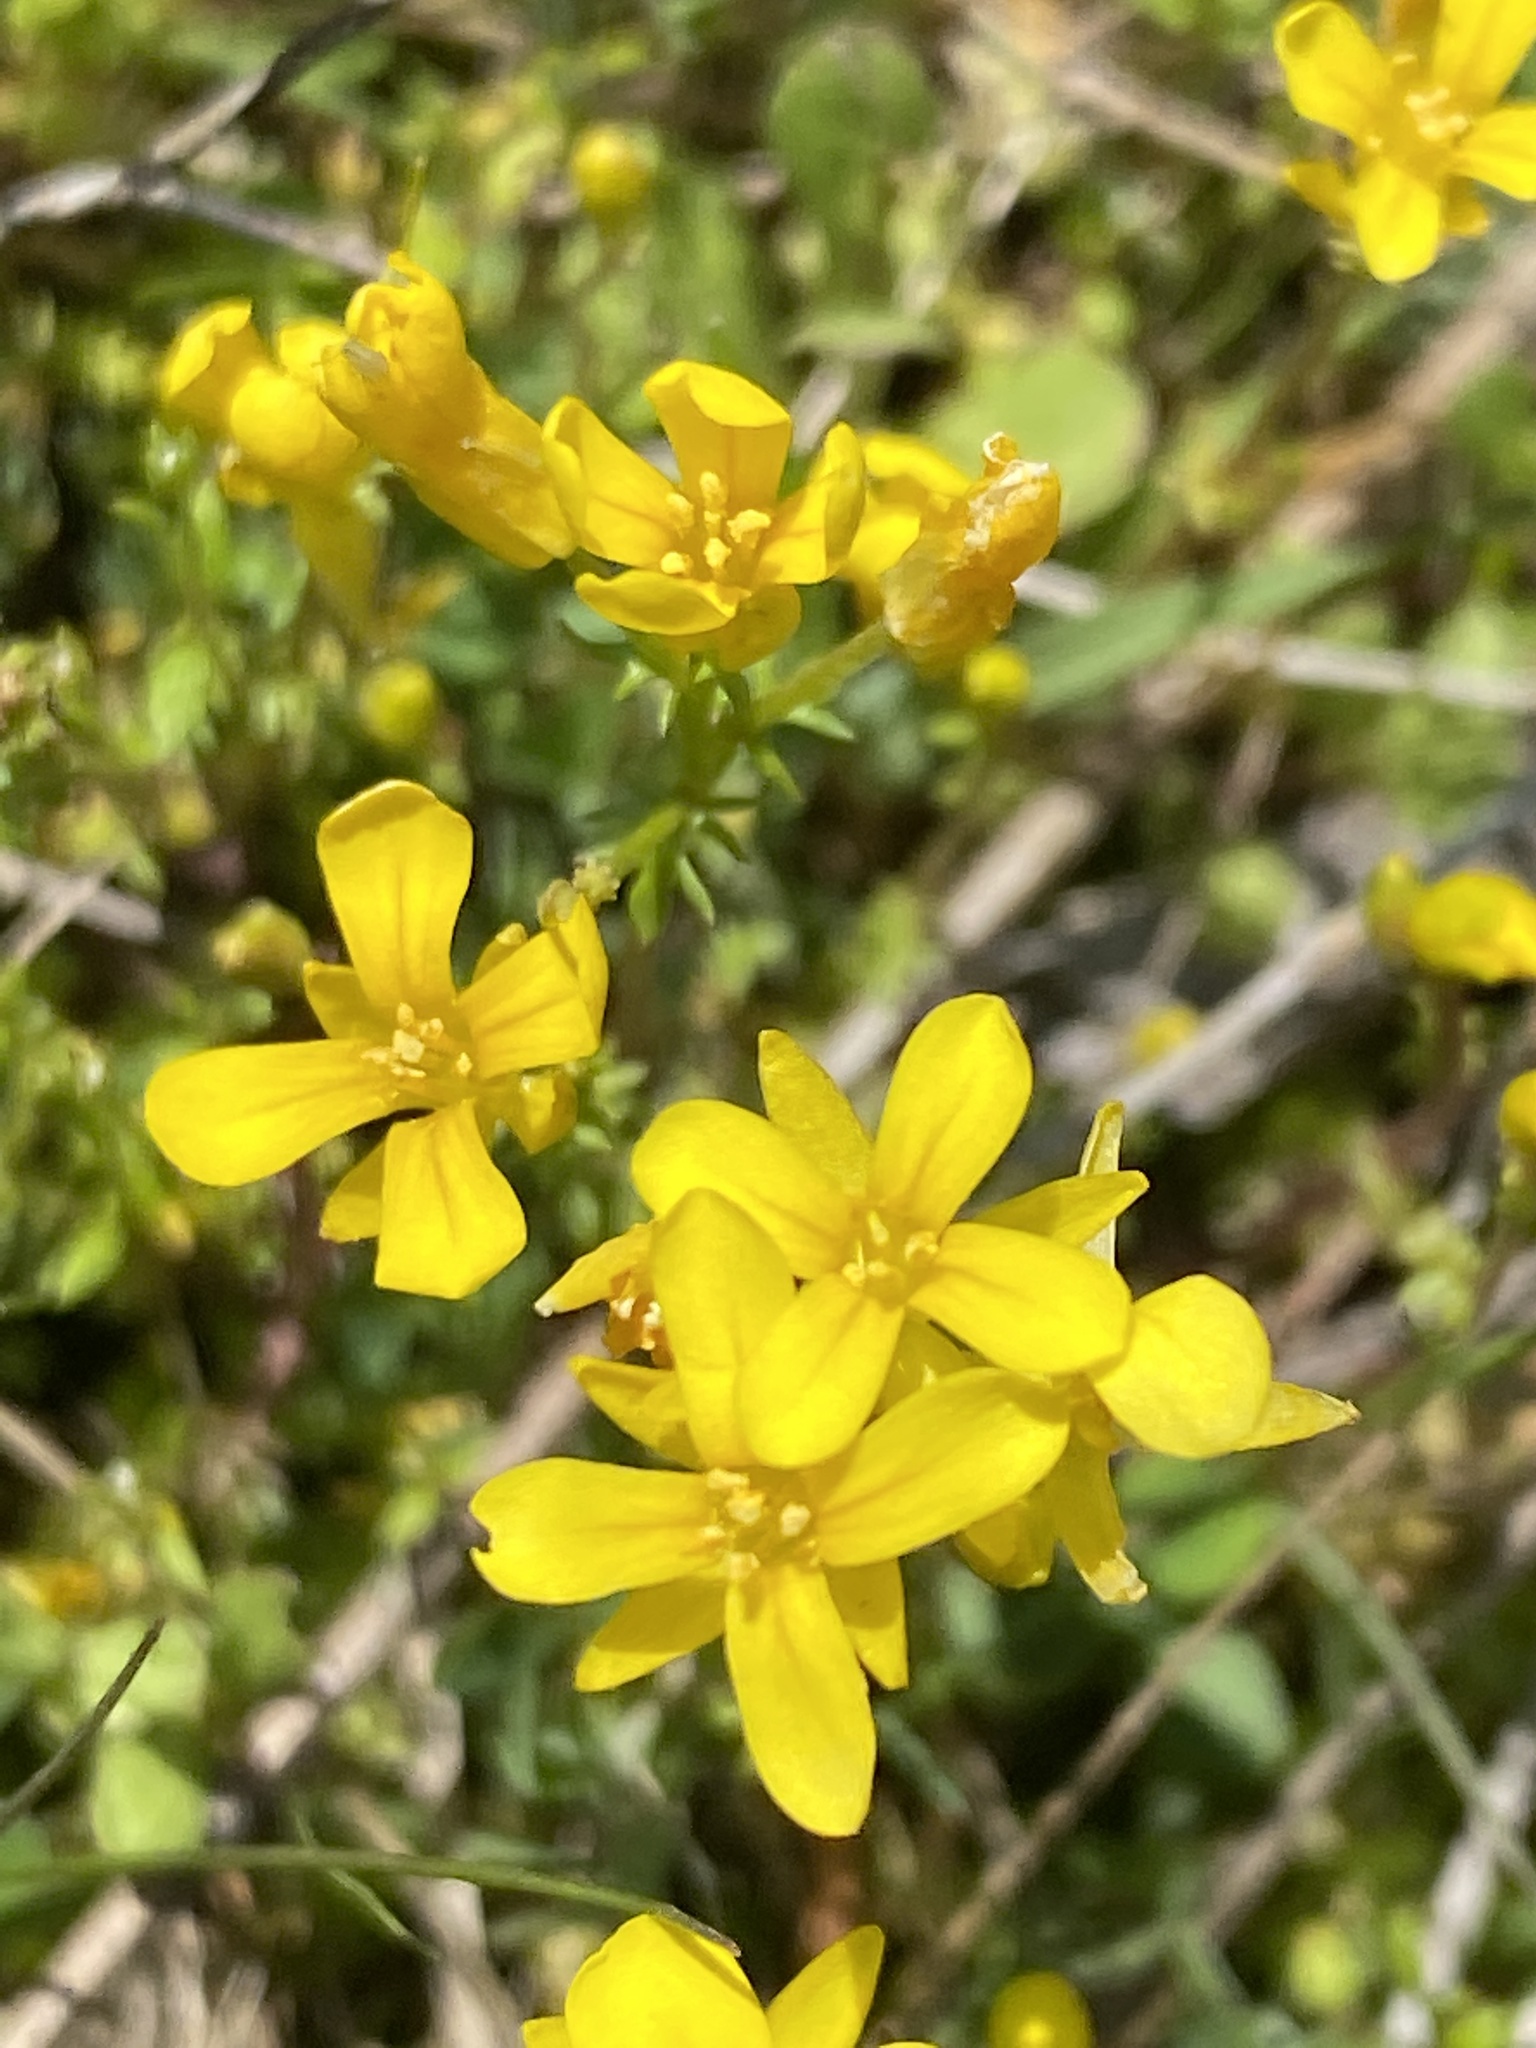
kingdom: Plantae
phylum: Tracheophyta
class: Magnoliopsida
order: Brassicales
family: Brassicaceae
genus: Selenia
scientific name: Selenia aurea
